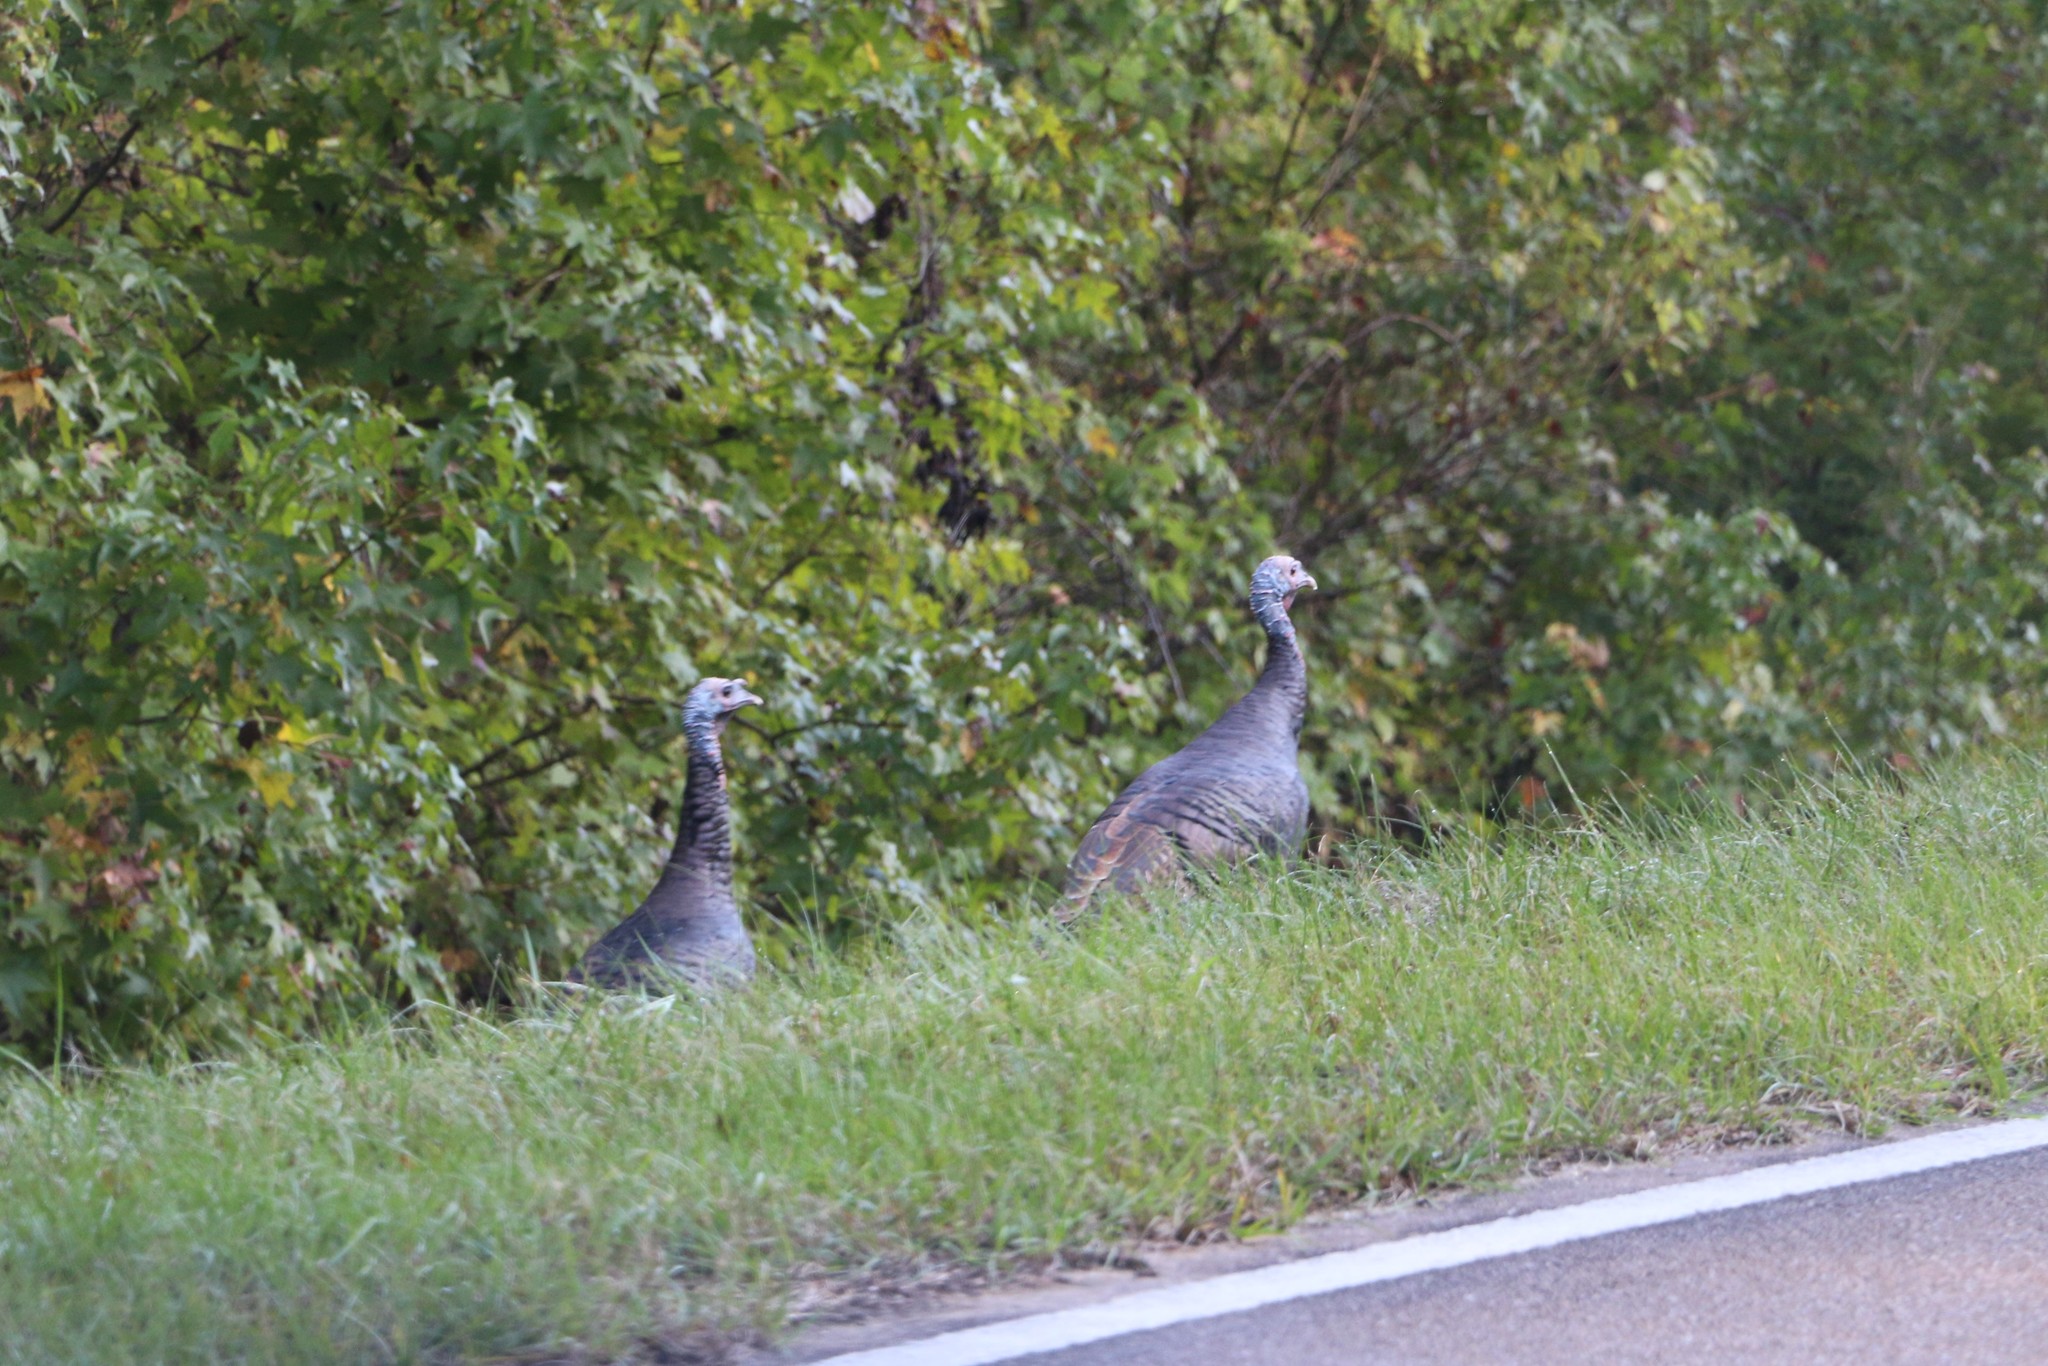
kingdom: Animalia
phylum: Chordata
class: Aves
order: Galliformes
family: Phasianidae
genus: Meleagris
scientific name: Meleagris gallopavo
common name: Wild turkey
